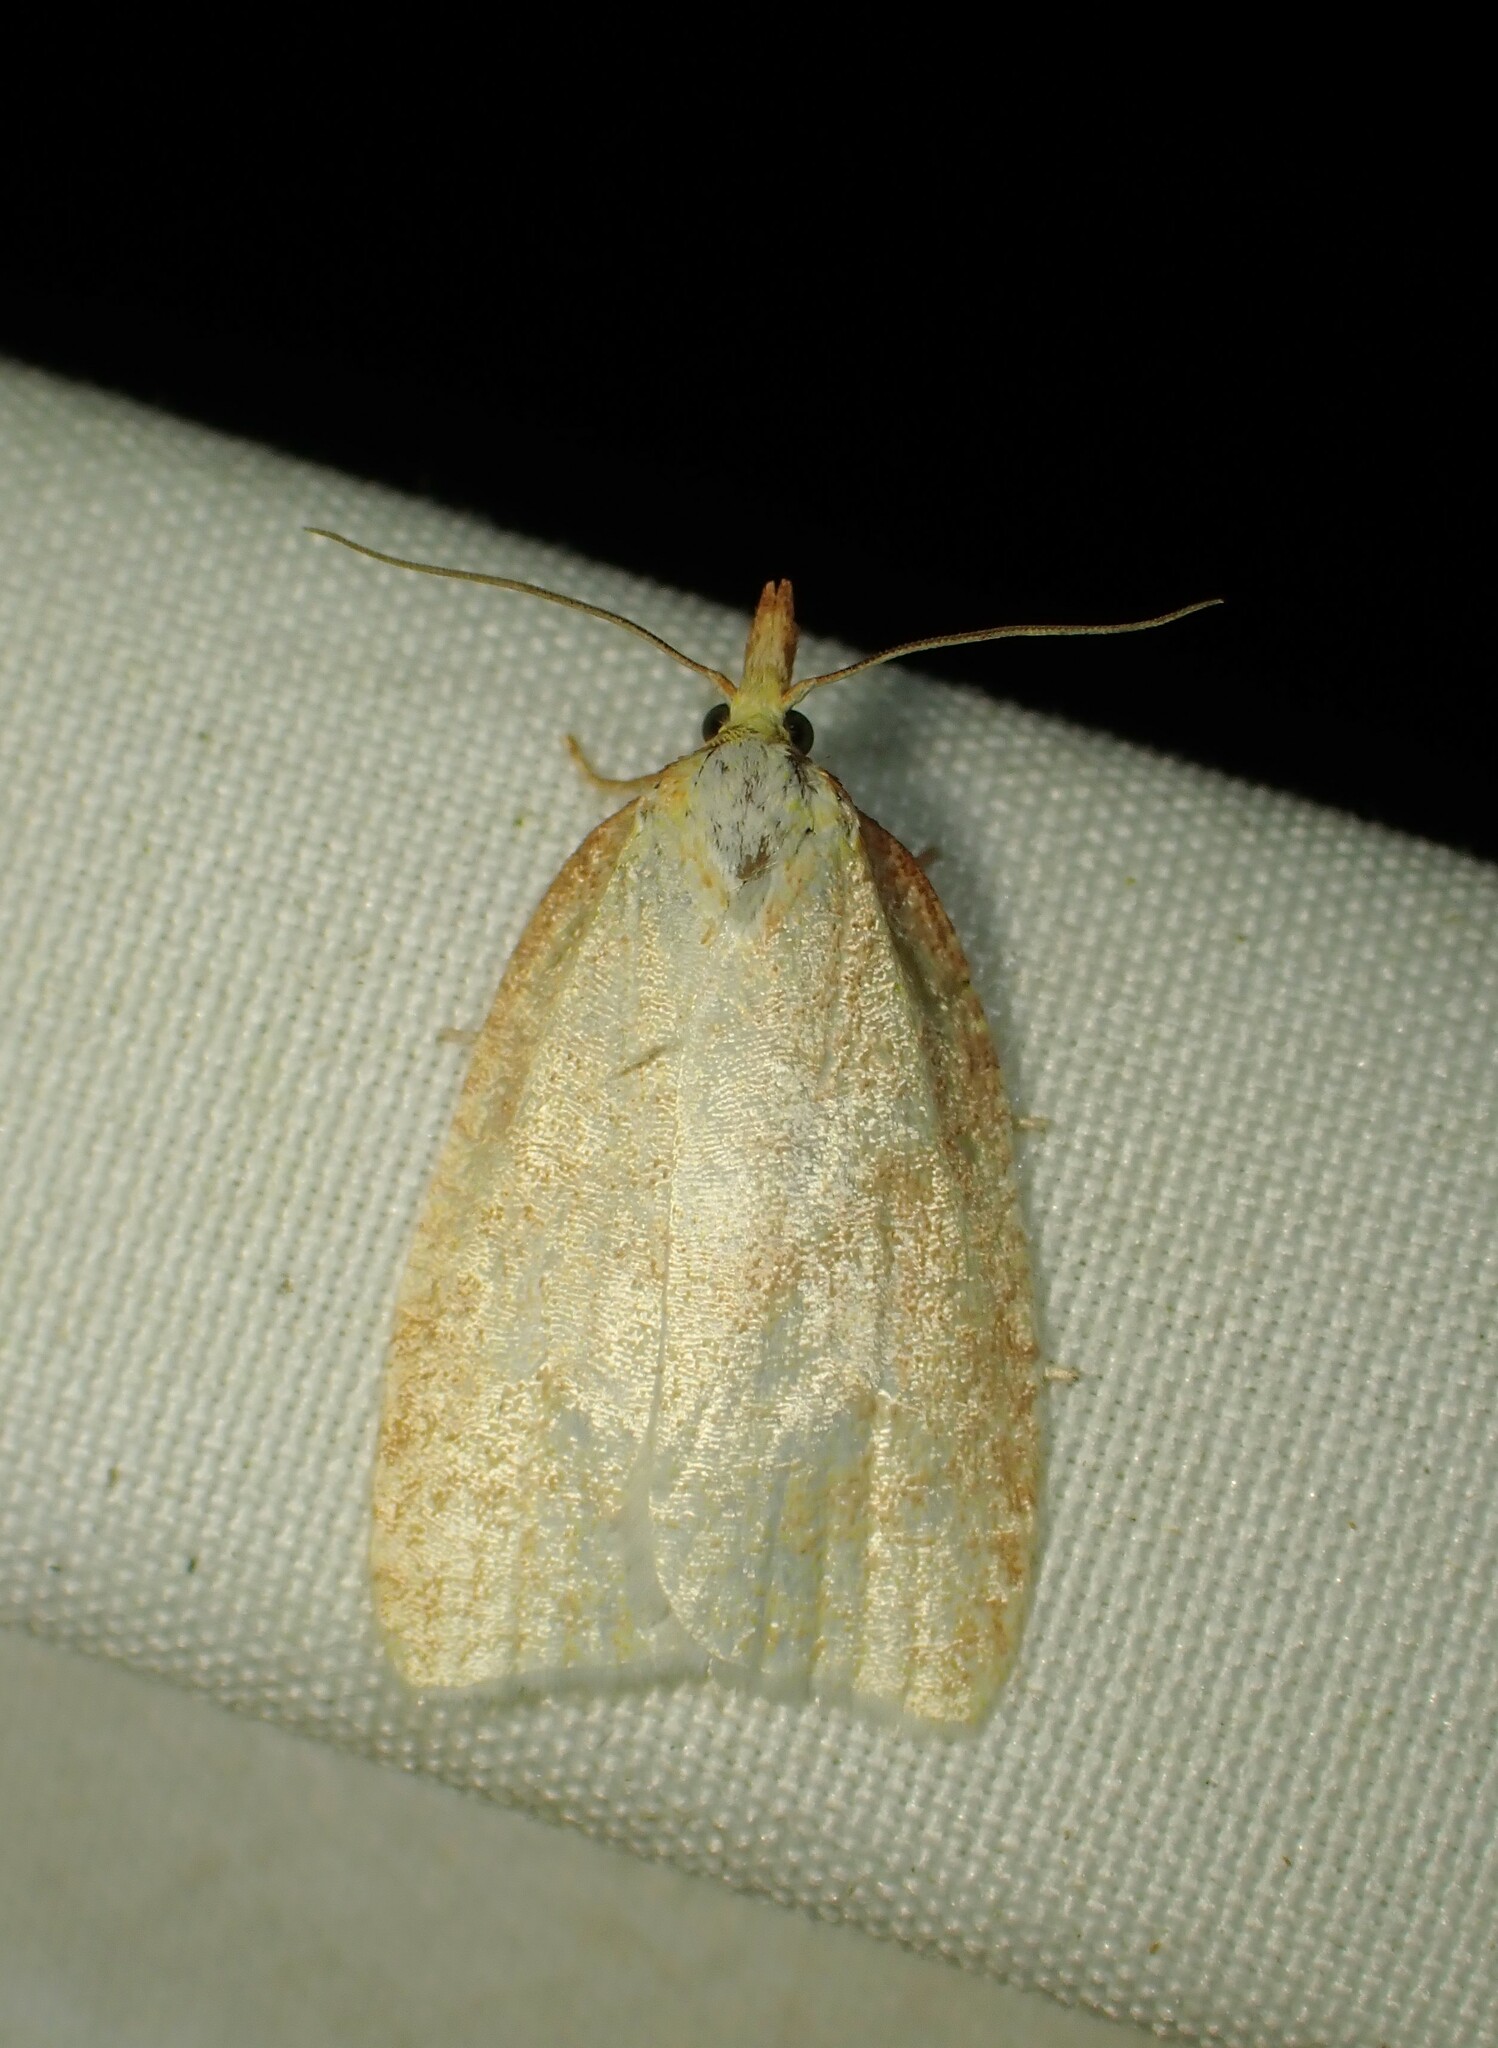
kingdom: Animalia
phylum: Arthropoda
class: Insecta
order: Lepidoptera
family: Tortricidae
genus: Cenopis
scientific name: Cenopis pettitana
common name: Maple-basswood leafroller moth
